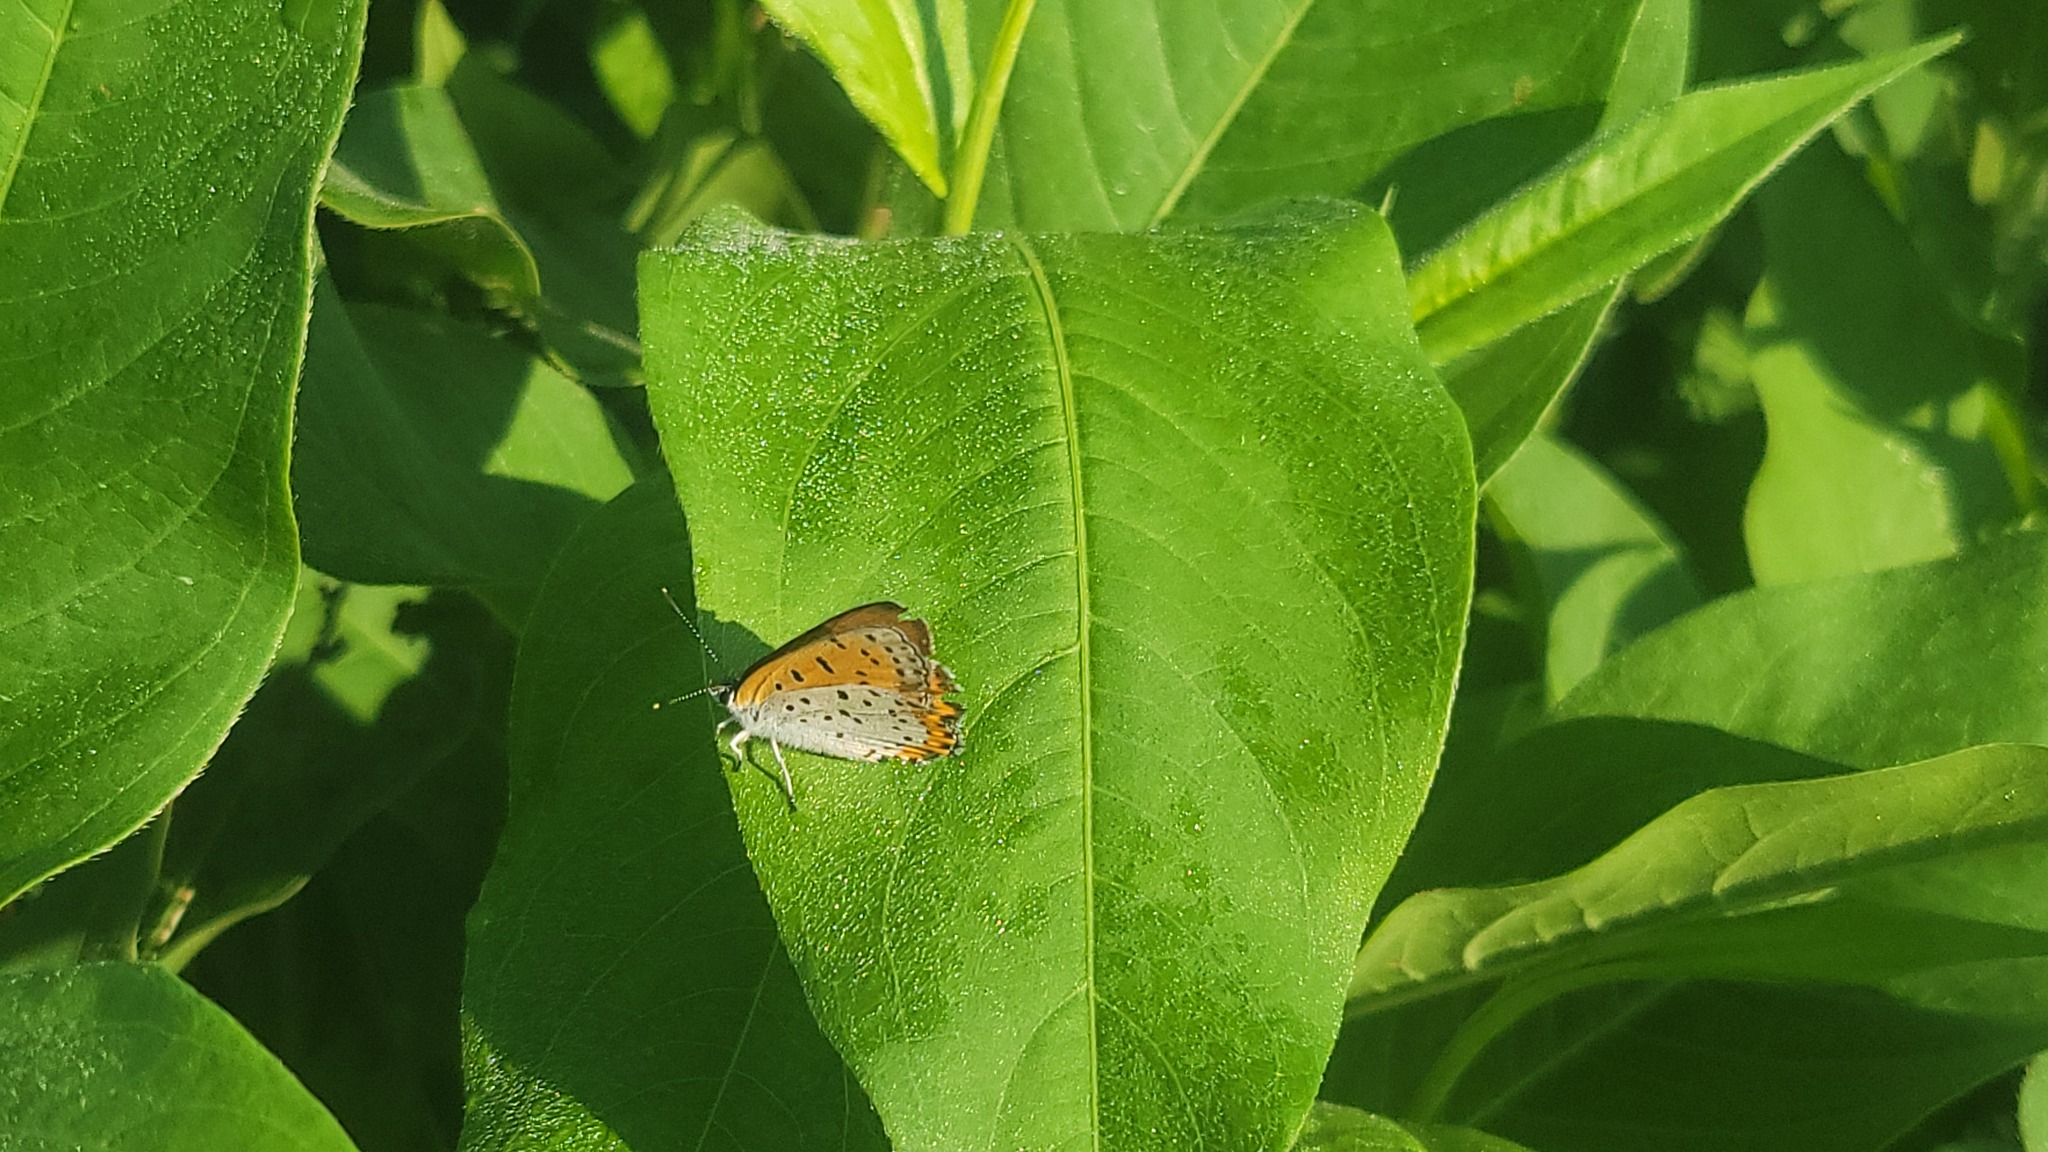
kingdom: Animalia
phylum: Arthropoda
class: Insecta
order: Lepidoptera
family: Lycaenidae
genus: Tharsalea
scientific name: Tharsalea hyllus
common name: Bronze copper
